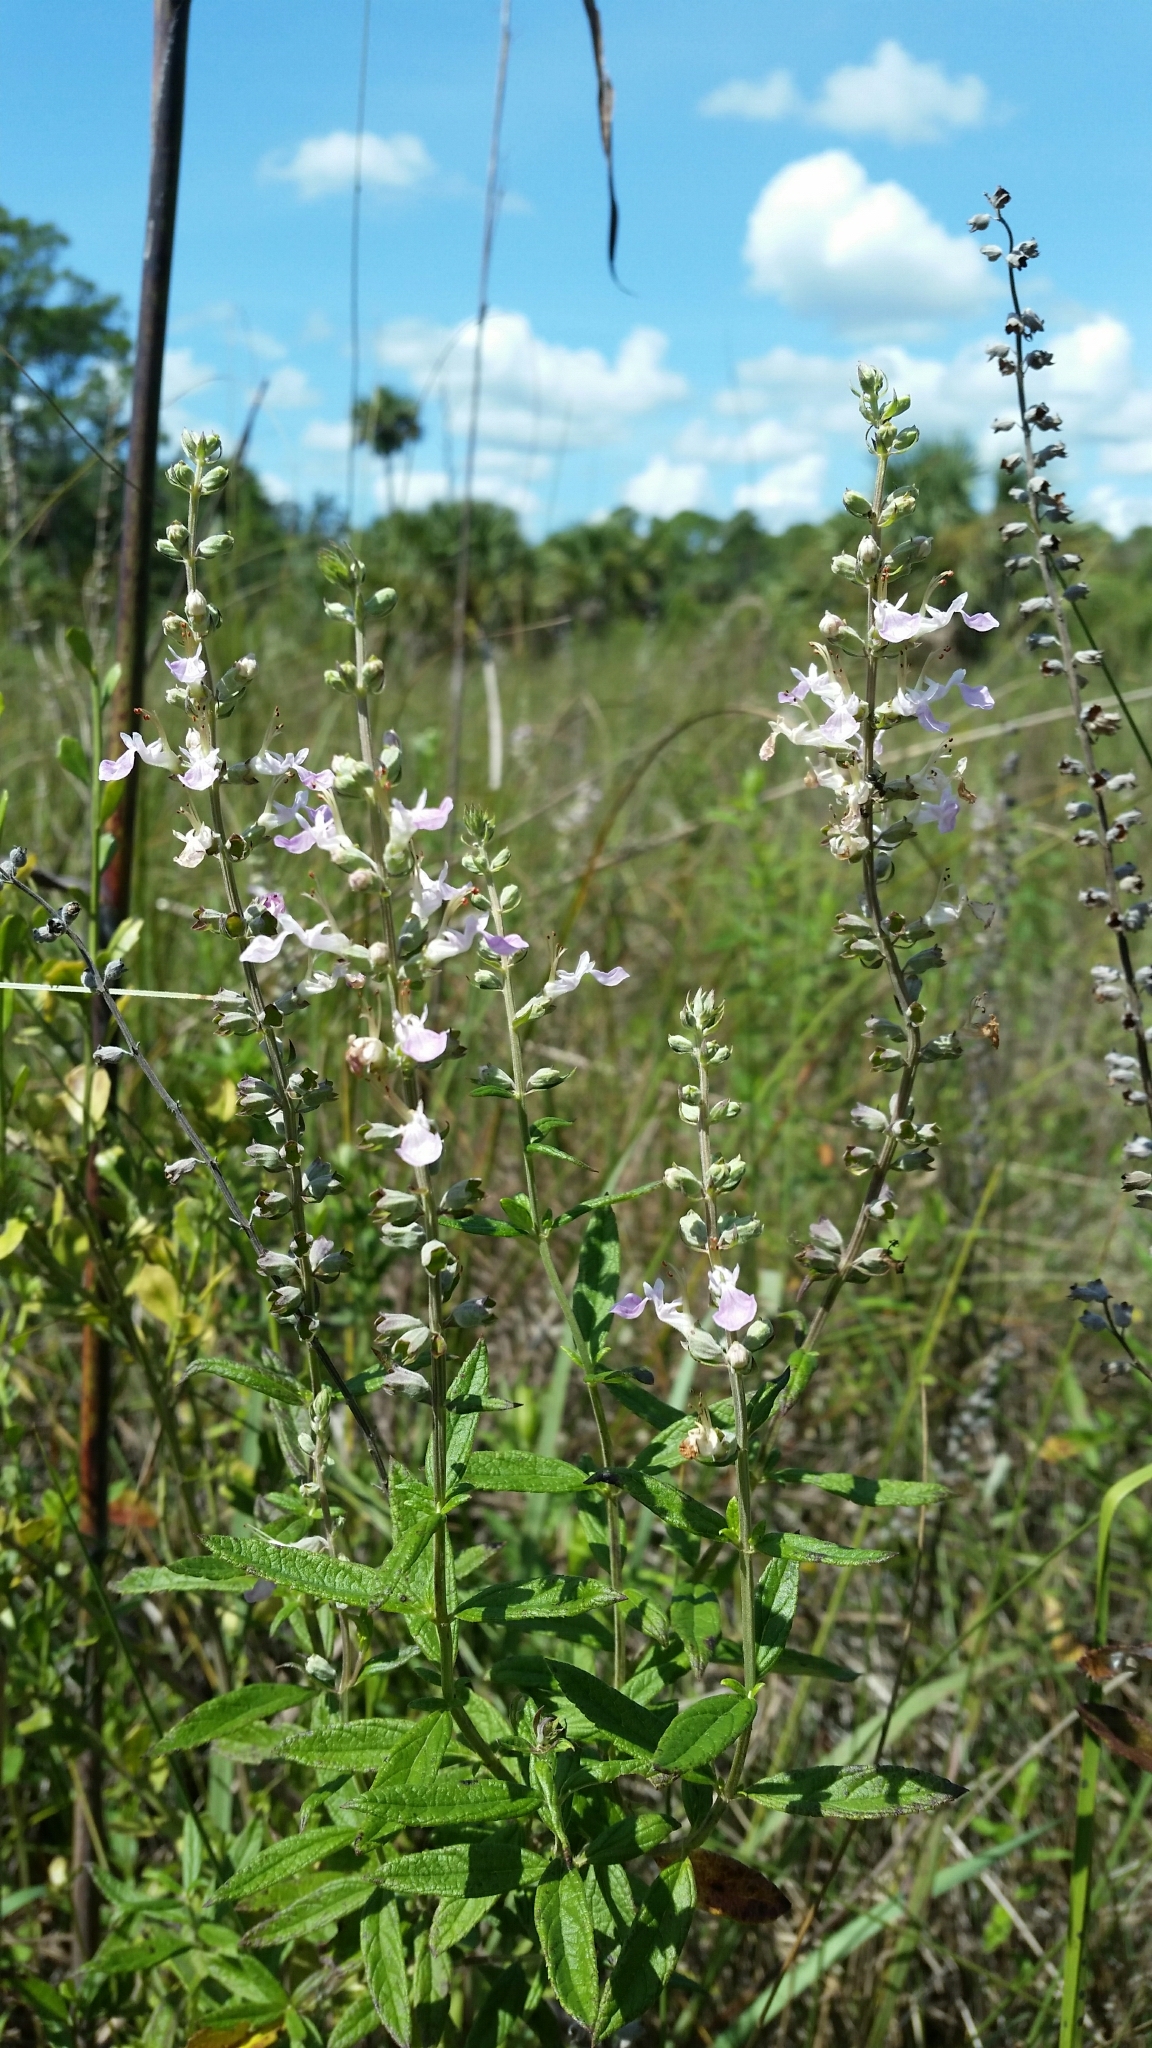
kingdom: Plantae
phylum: Tracheophyta
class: Magnoliopsida
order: Lamiales
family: Lamiaceae
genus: Teucrium
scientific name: Teucrium canadense
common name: American germander
